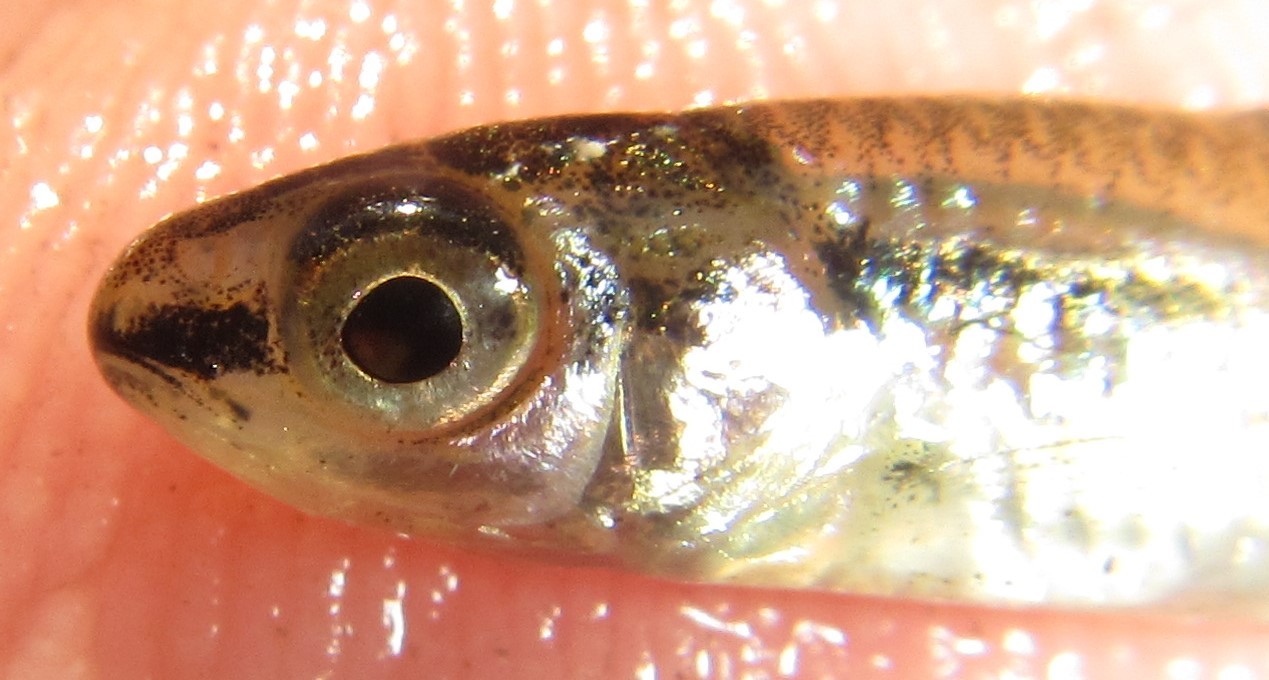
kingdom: Animalia
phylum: Chordata
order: Cypriniformes
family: Cyprinidae
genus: Enteromius
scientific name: Enteromius barnardi
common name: Blackback barb
